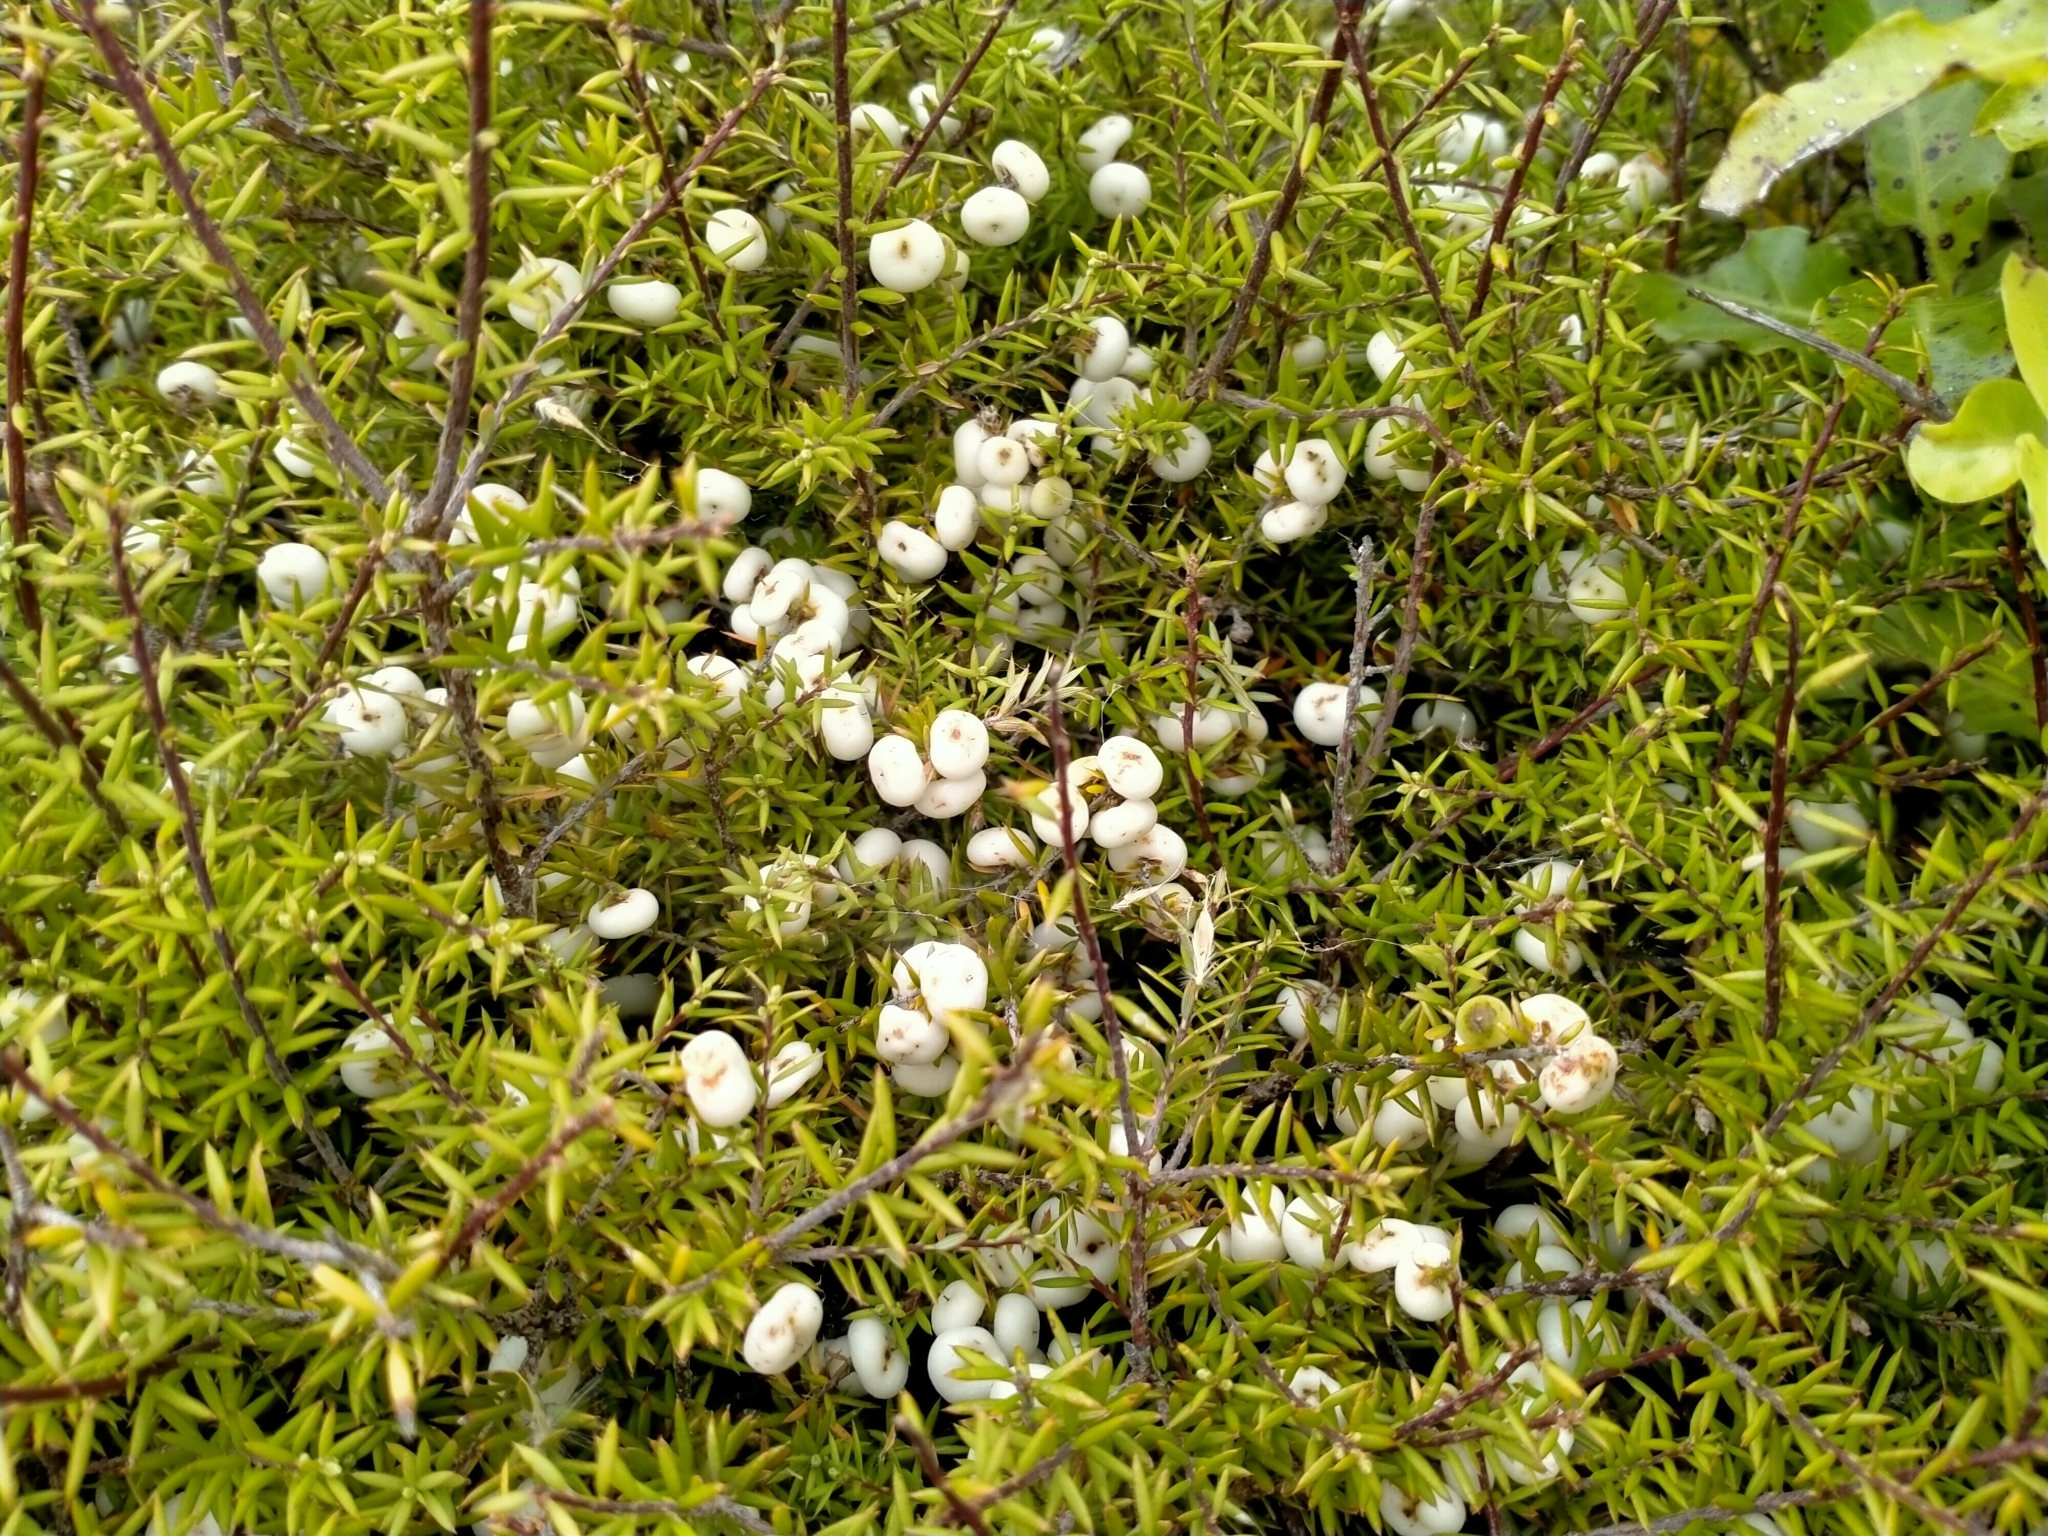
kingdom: Plantae
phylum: Tracheophyta
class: Magnoliopsida
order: Ericales
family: Ericaceae
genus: Leptecophylla
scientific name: Leptecophylla juniperina
